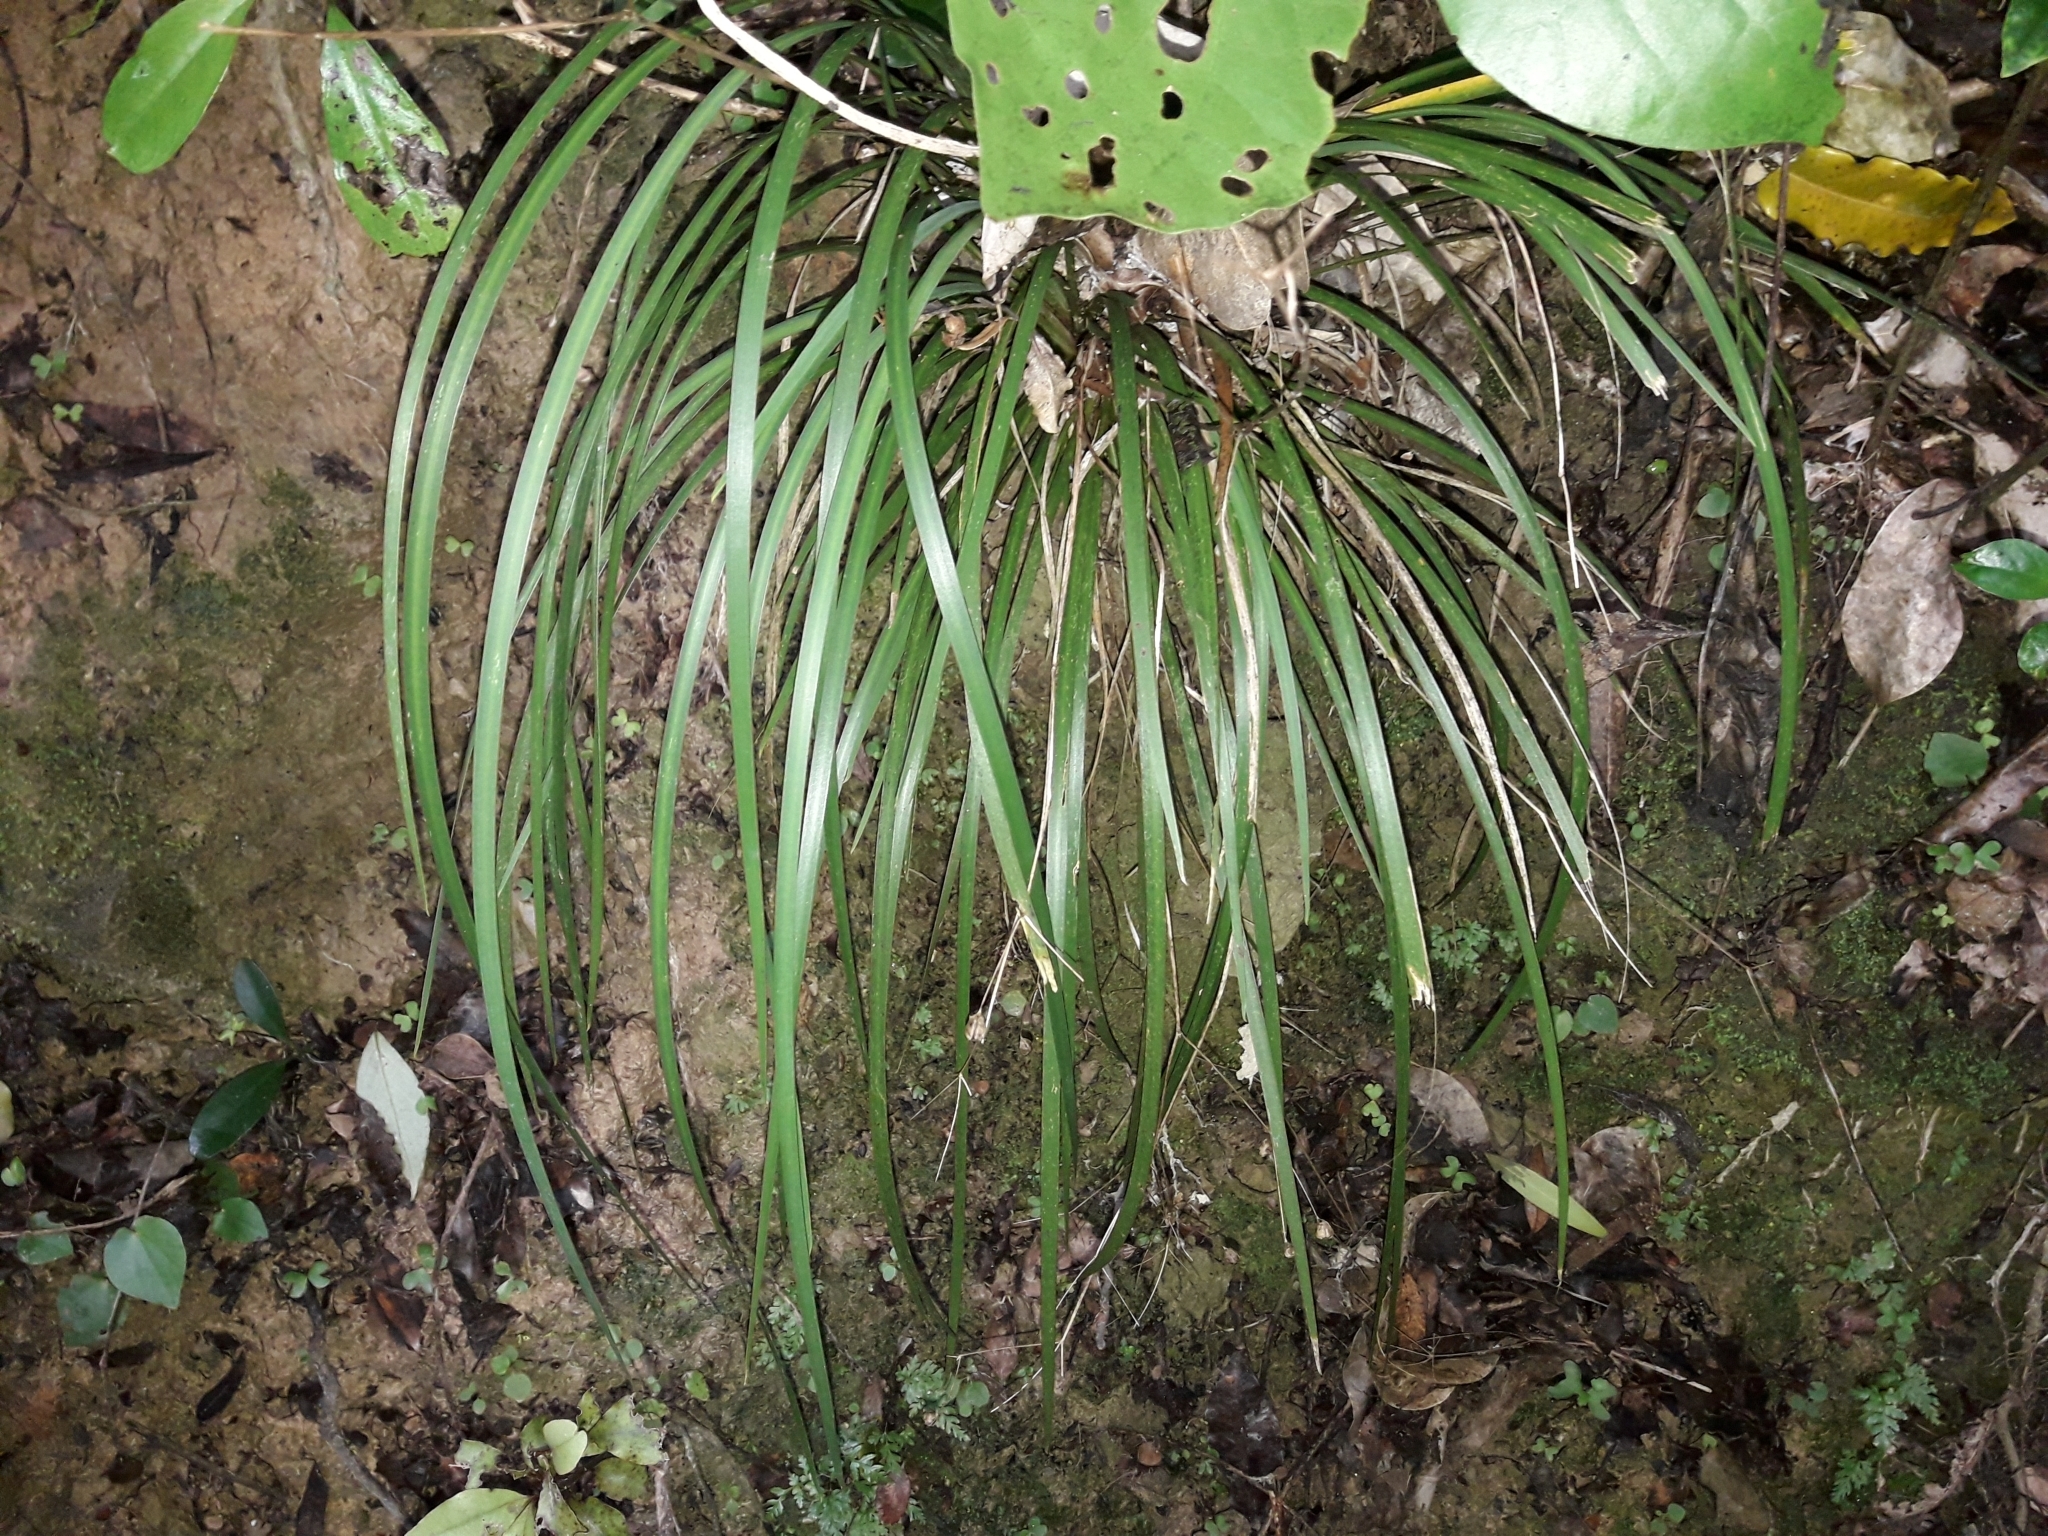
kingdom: Plantae
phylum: Tracheophyta
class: Liliopsida
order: Asparagales
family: Iridaceae
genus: Libertia
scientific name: Libertia grandiflora
